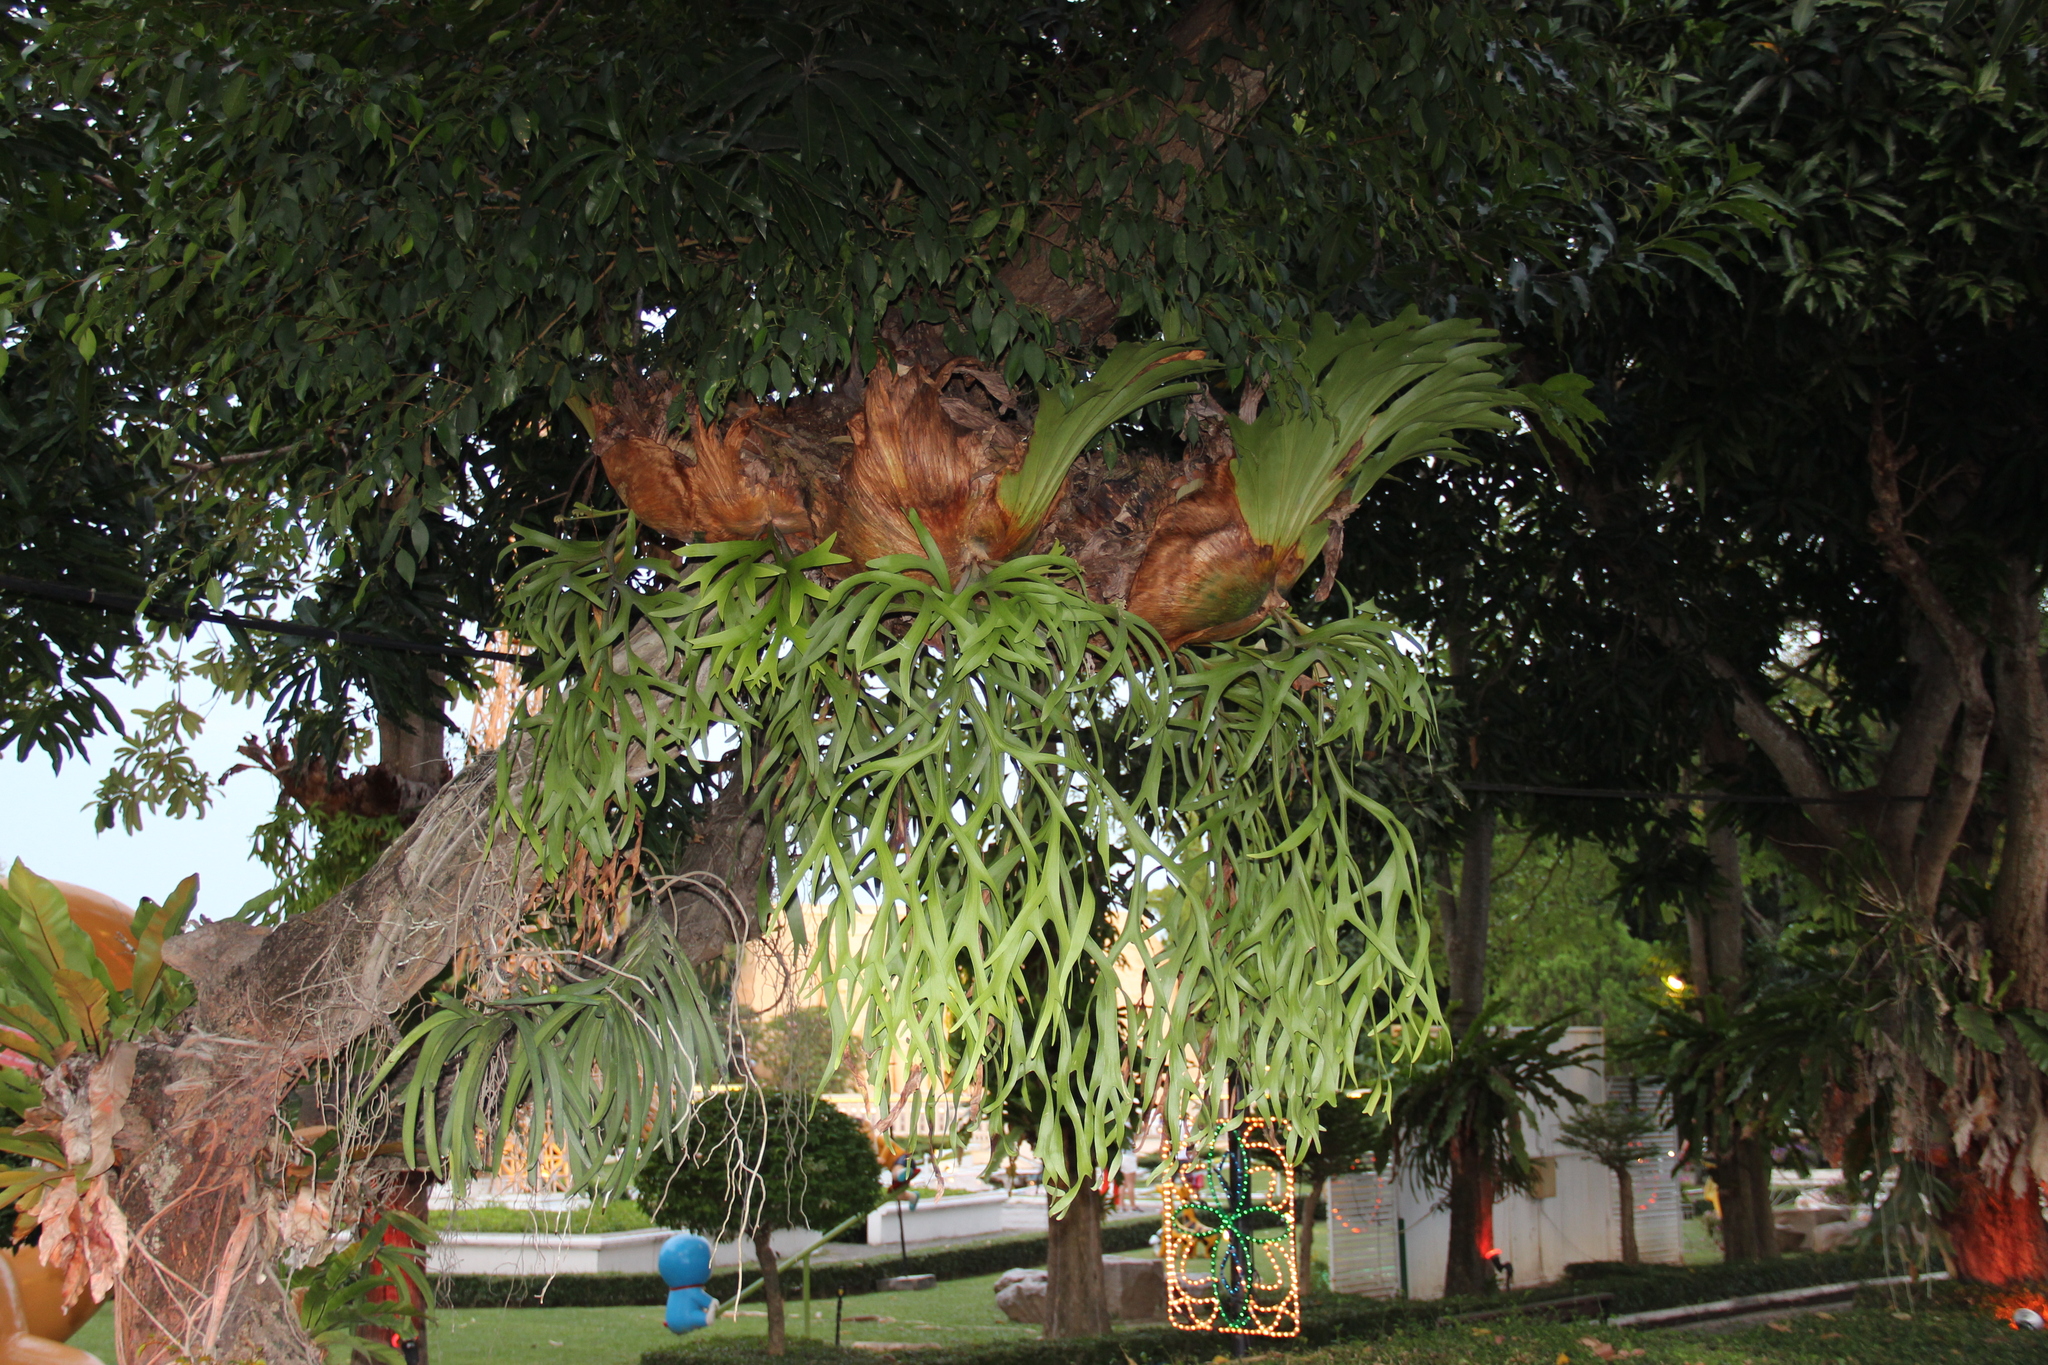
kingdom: Plantae
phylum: Tracheophyta
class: Polypodiopsida
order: Polypodiales
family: Polypodiaceae
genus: Platycerium
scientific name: Platycerium coronarium
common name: Elkhorn fern
